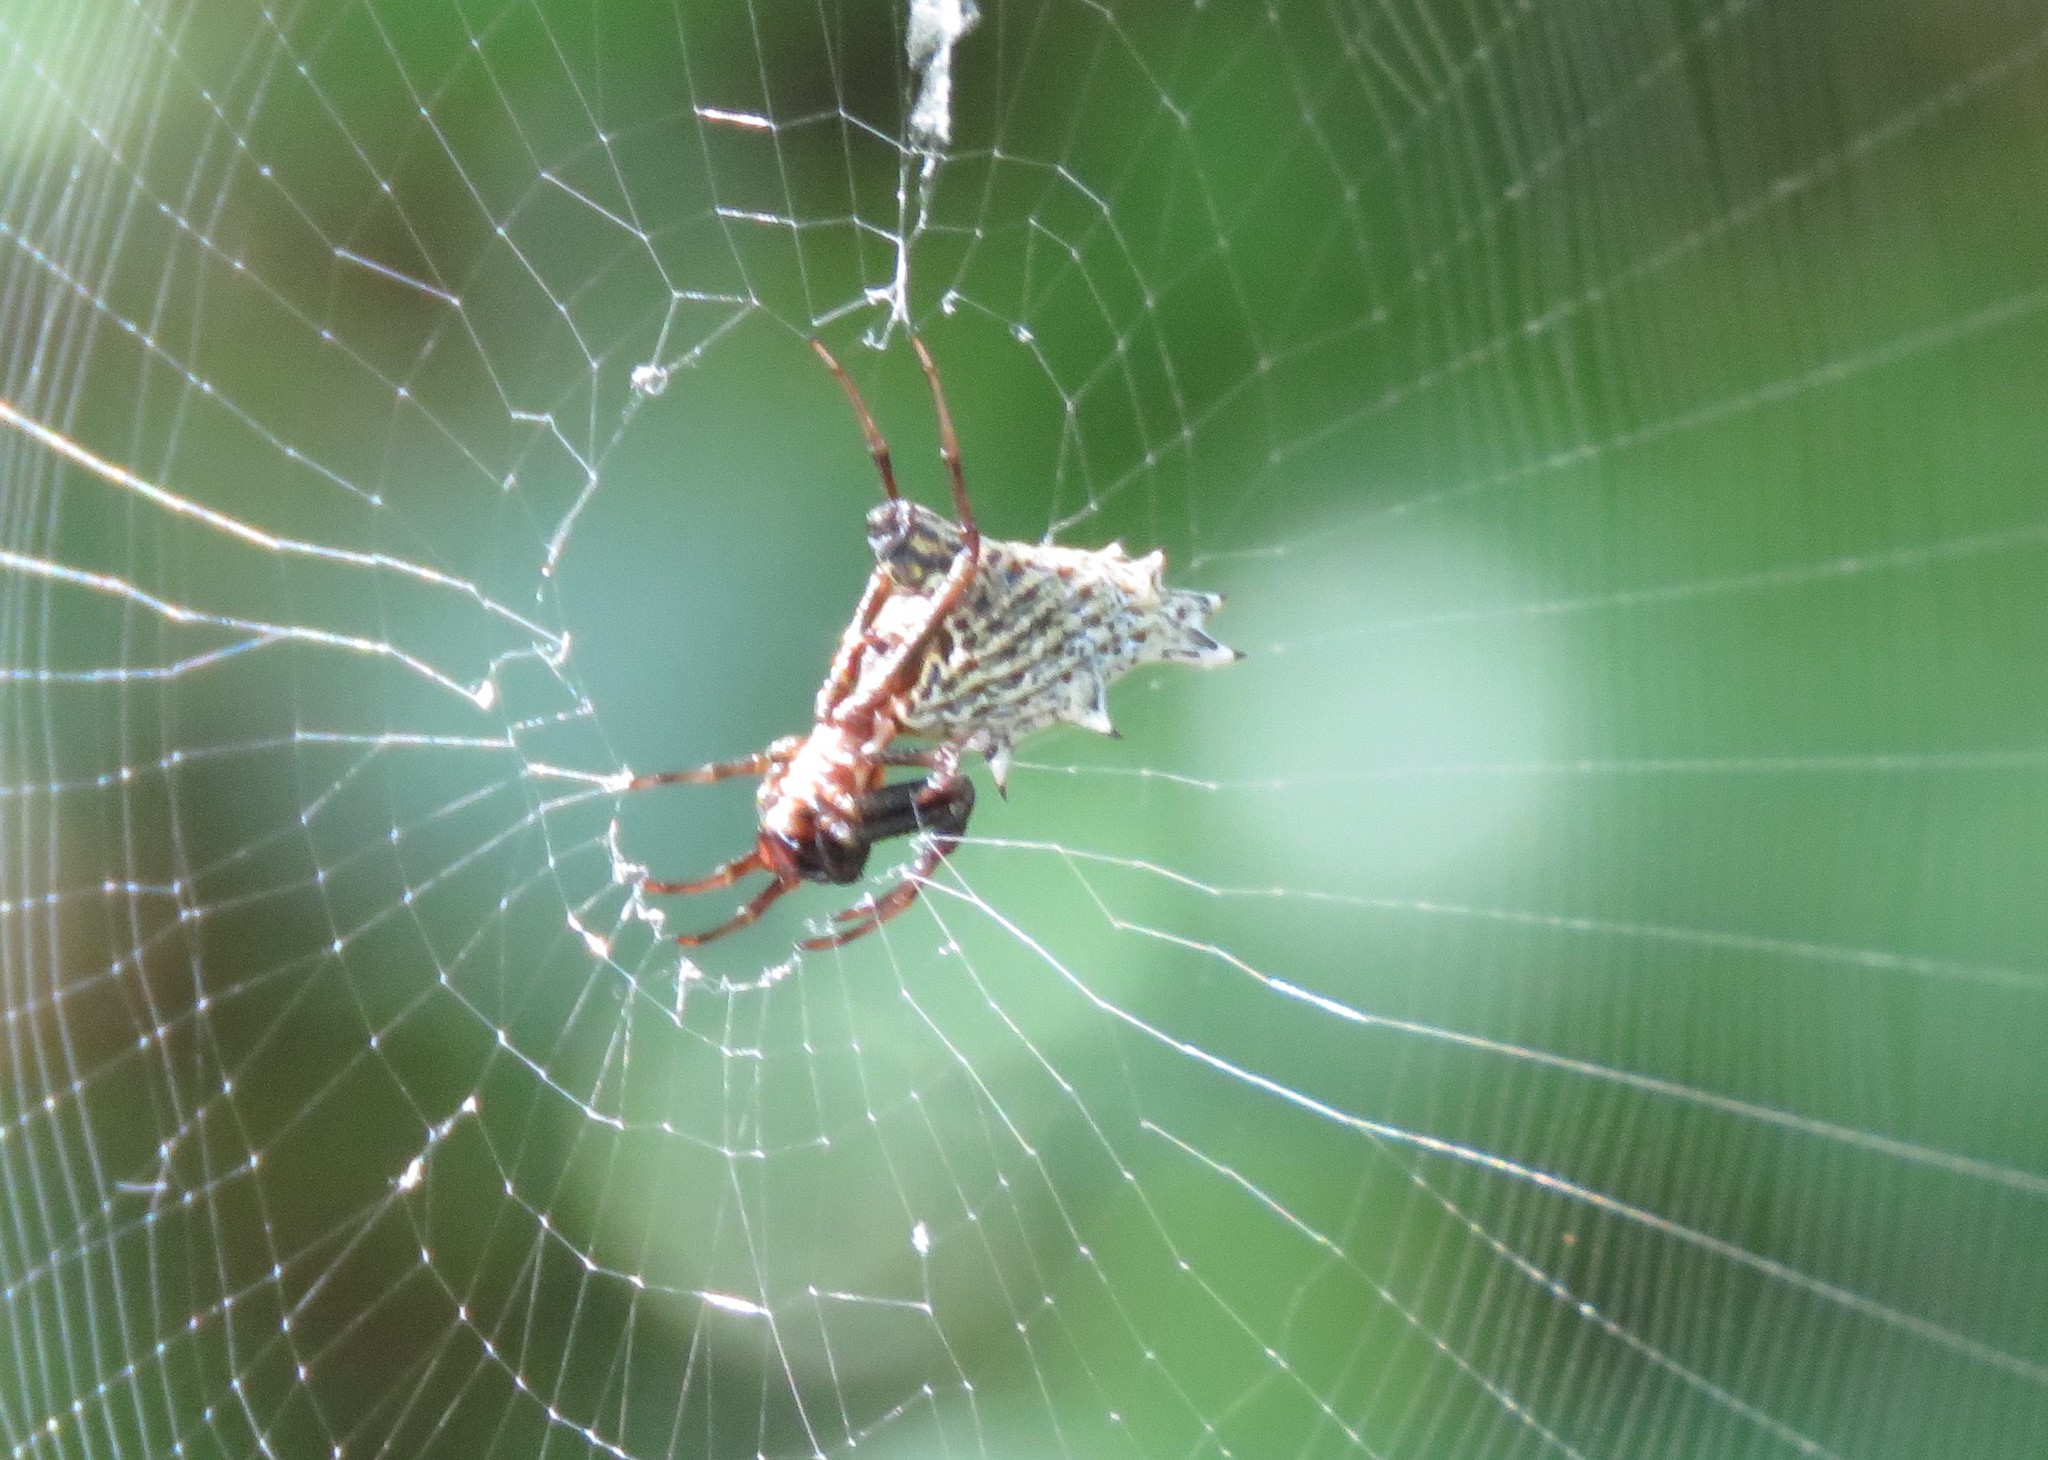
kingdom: Animalia
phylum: Arthropoda
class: Arachnida
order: Araneae
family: Araneidae
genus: Micrathena
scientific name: Micrathena gracilis
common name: Orb weavers
